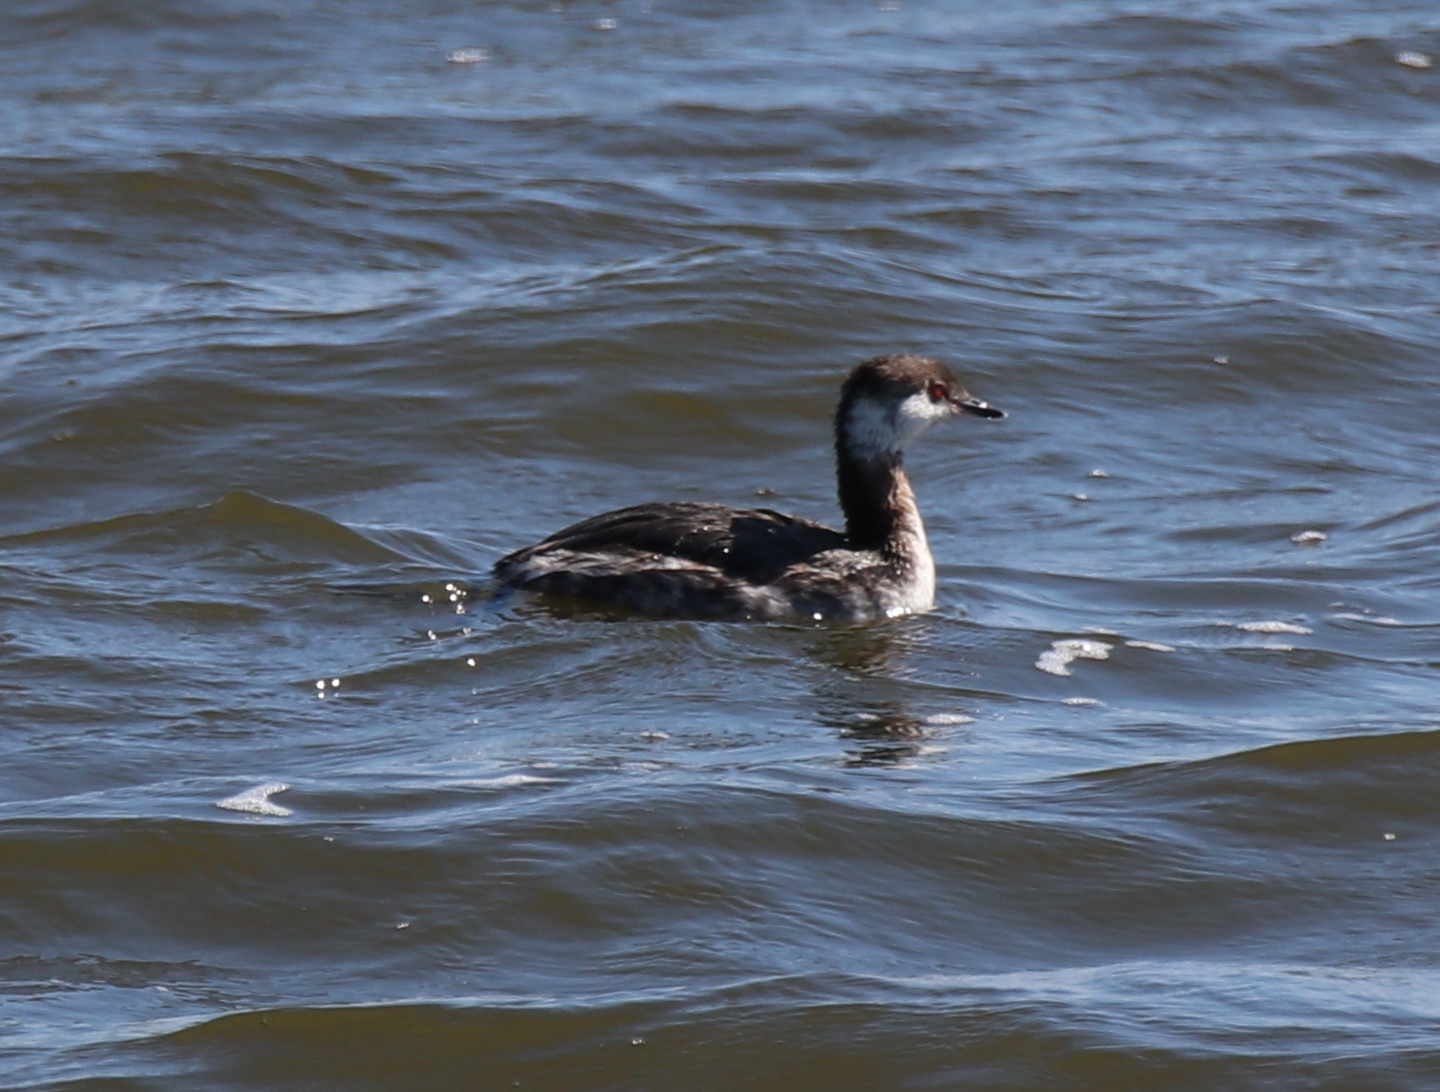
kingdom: Animalia
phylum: Chordata
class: Aves
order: Podicipediformes
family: Podicipedidae
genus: Podiceps
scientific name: Podiceps auritus
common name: Horned grebe
